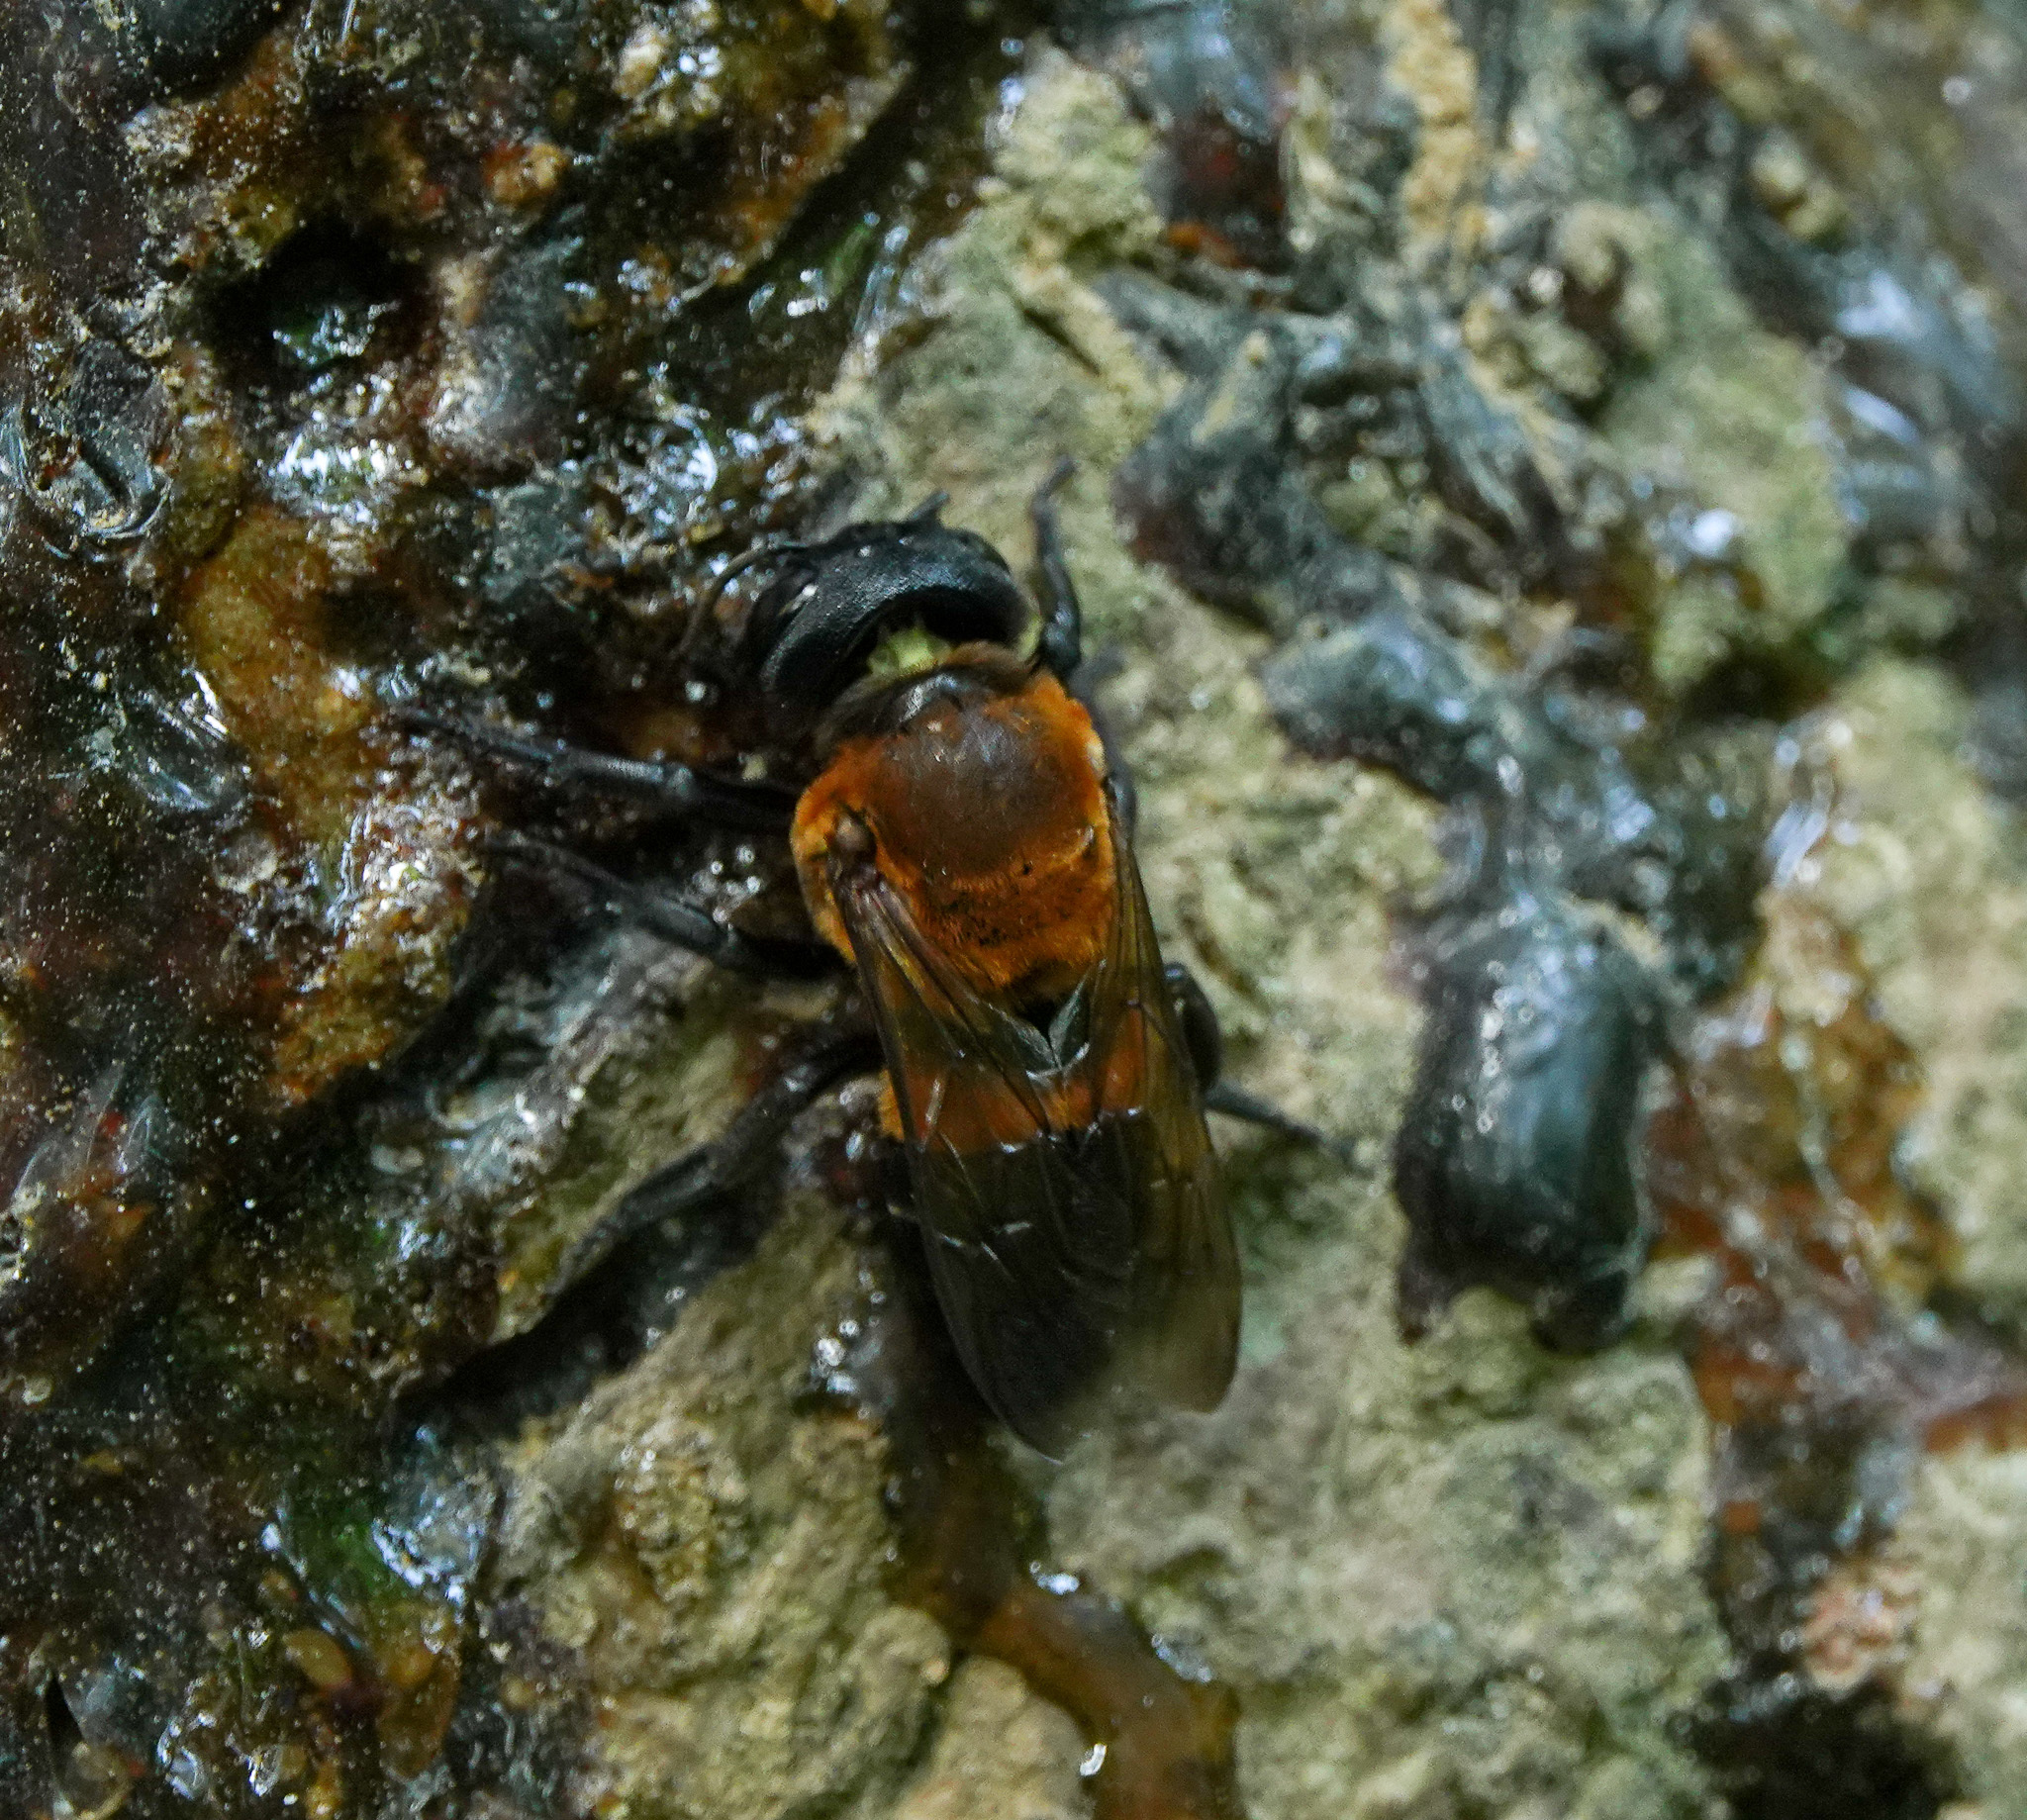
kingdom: Animalia
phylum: Arthropoda
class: Insecta
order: Hymenoptera
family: Megachilidae
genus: Megachile
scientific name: Megachile monticola
